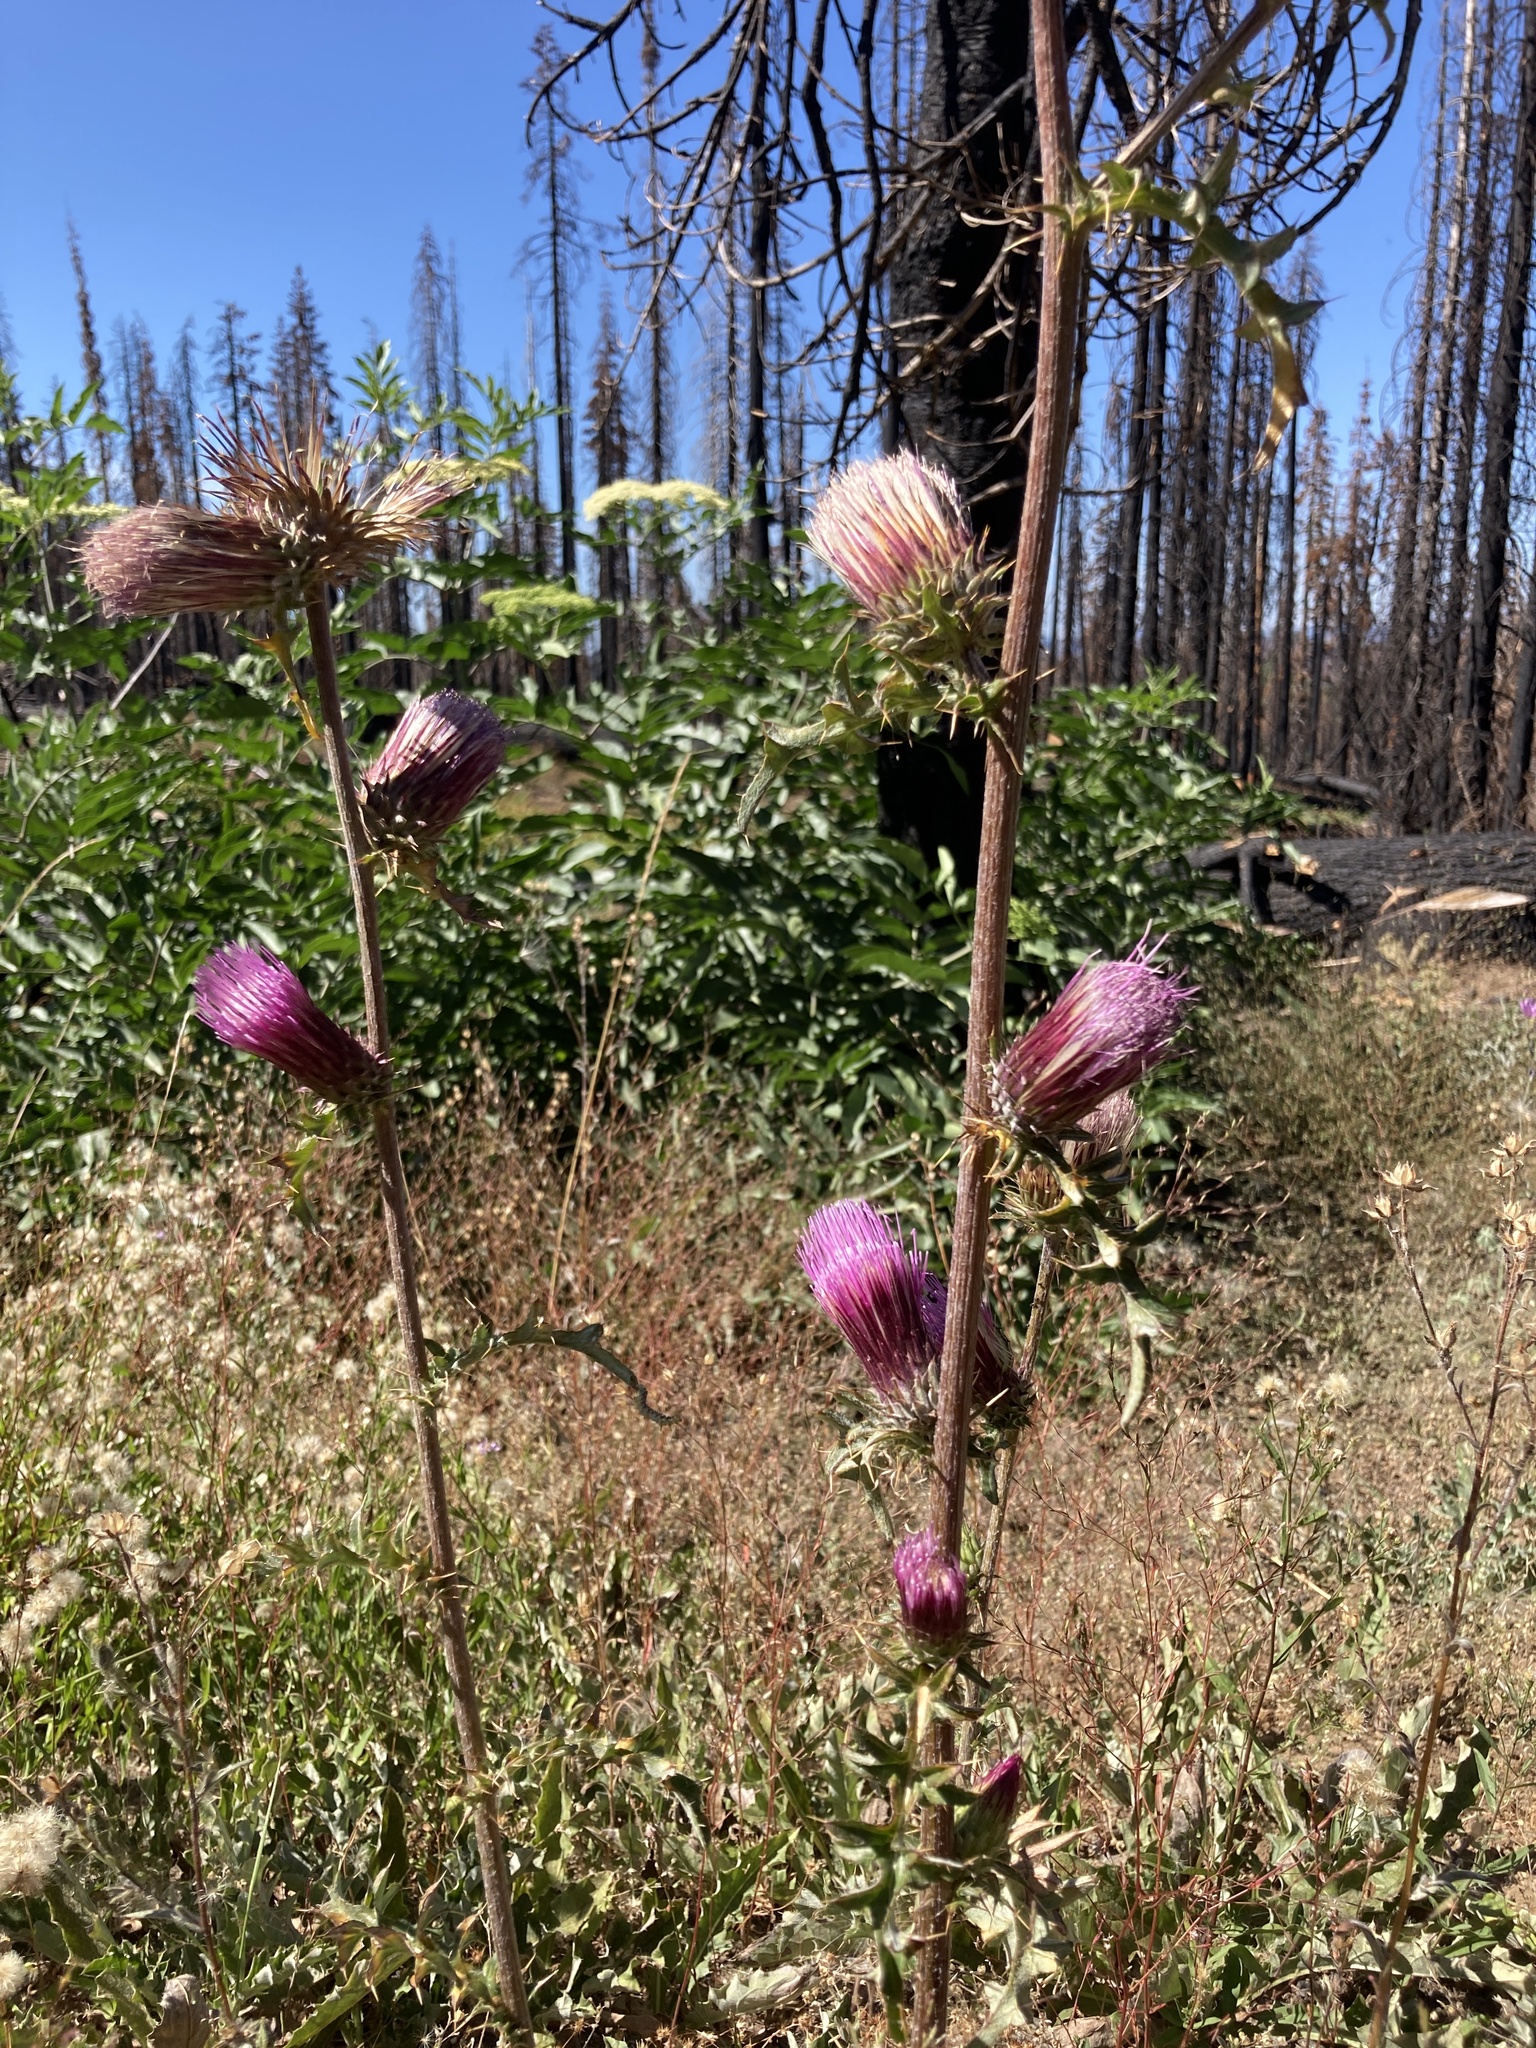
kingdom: Plantae
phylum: Tracheophyta
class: Magnoliopsida
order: Asterales
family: Asteraceae
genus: Cirsium
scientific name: Cirsium andersonii
